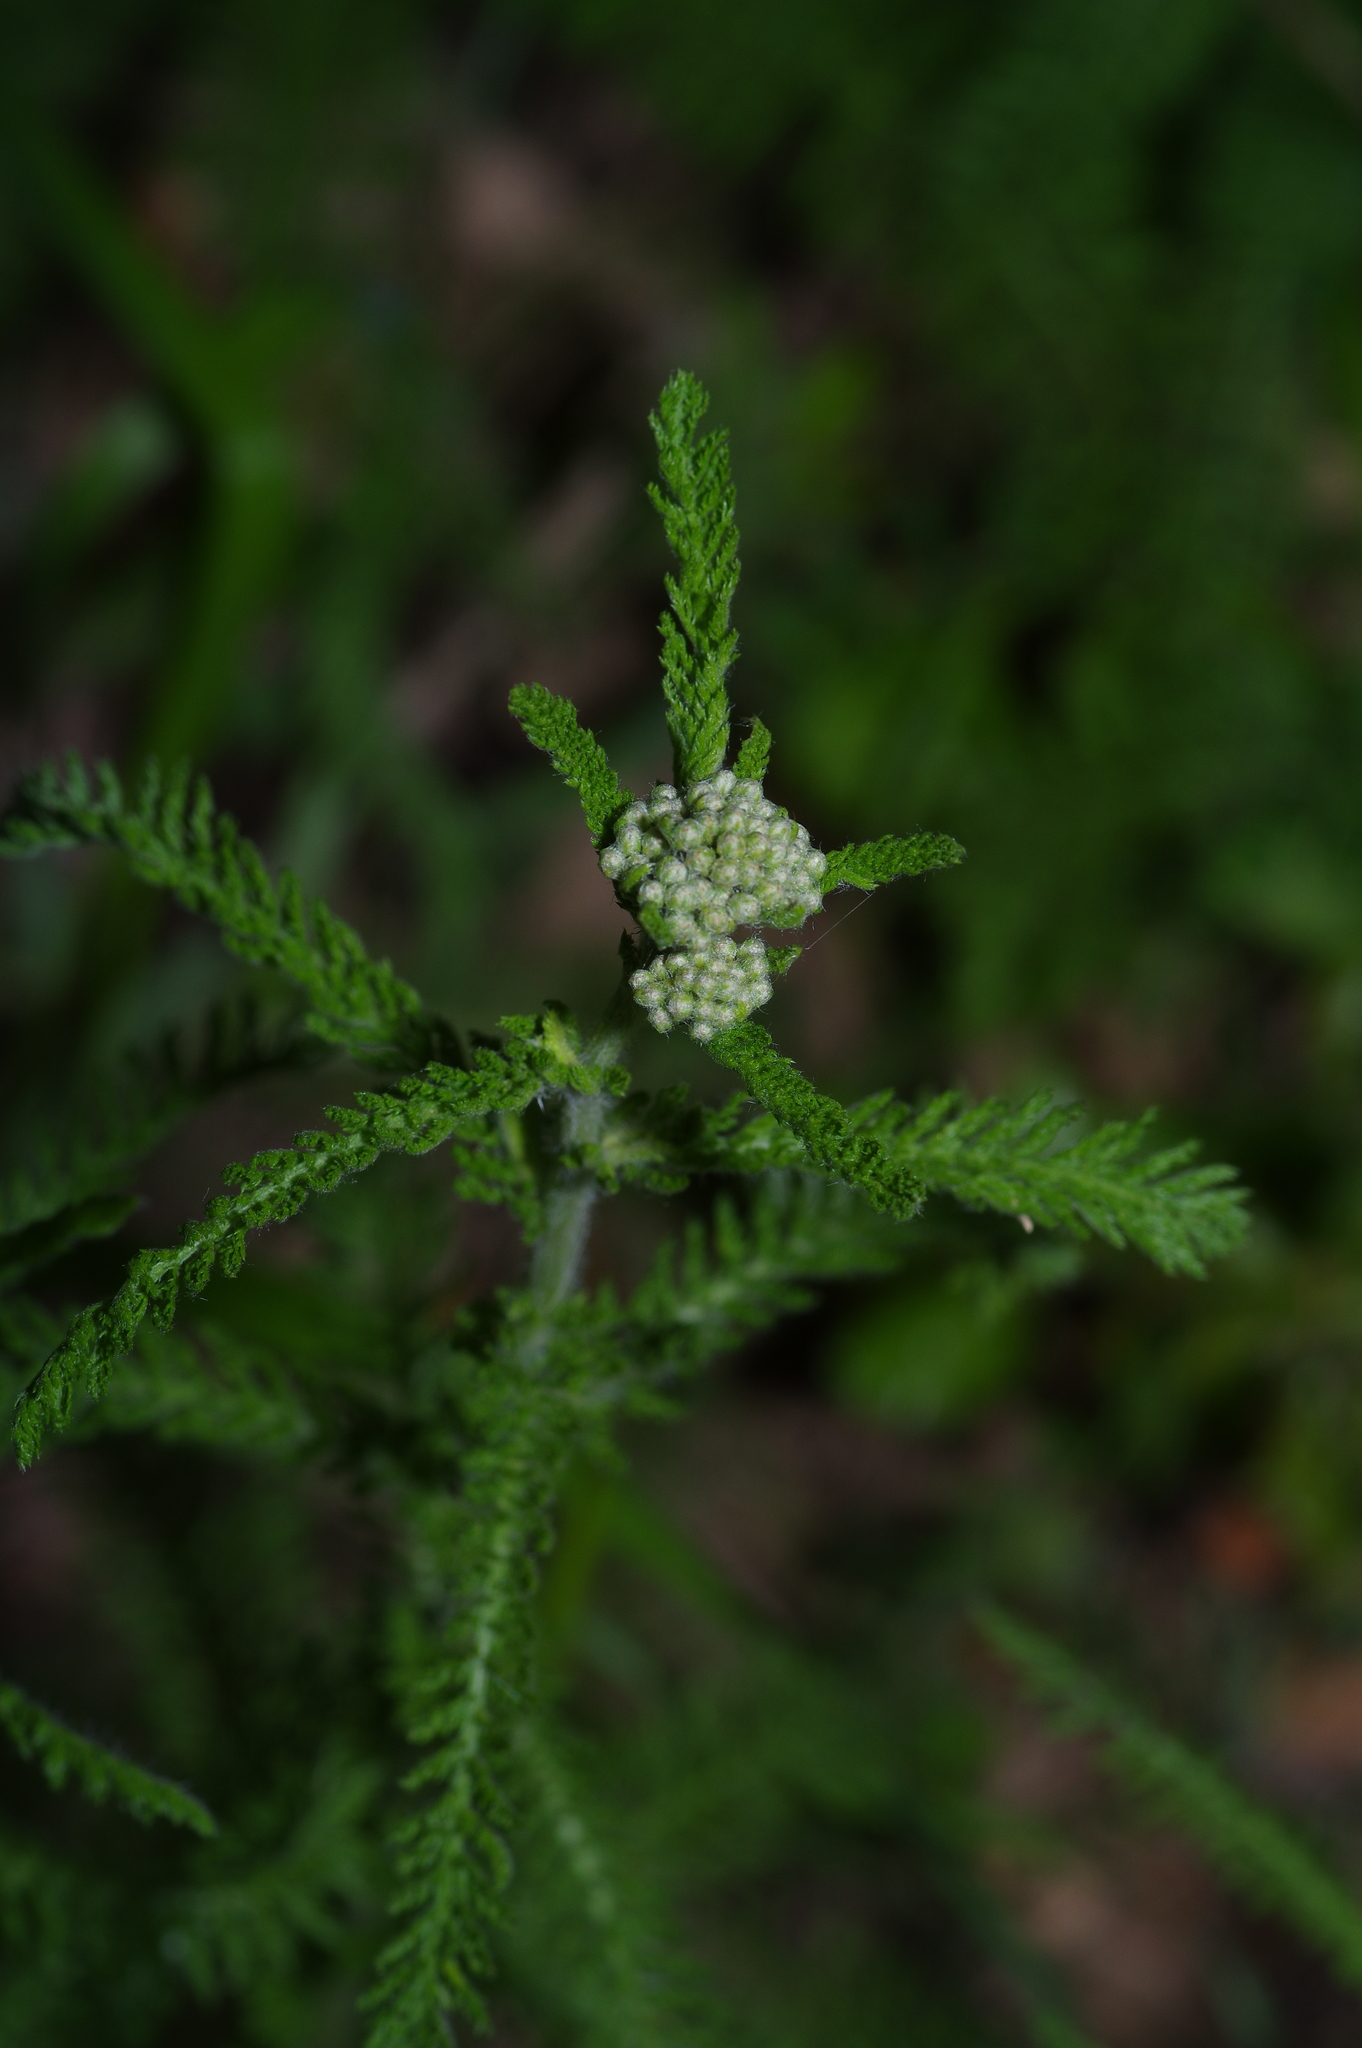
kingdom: Plantae
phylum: Tracheophyta
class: Magnoliopsida
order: Asterales
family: Asteraceae
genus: Achillea
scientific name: Achillea millefolium
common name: Yarrow
